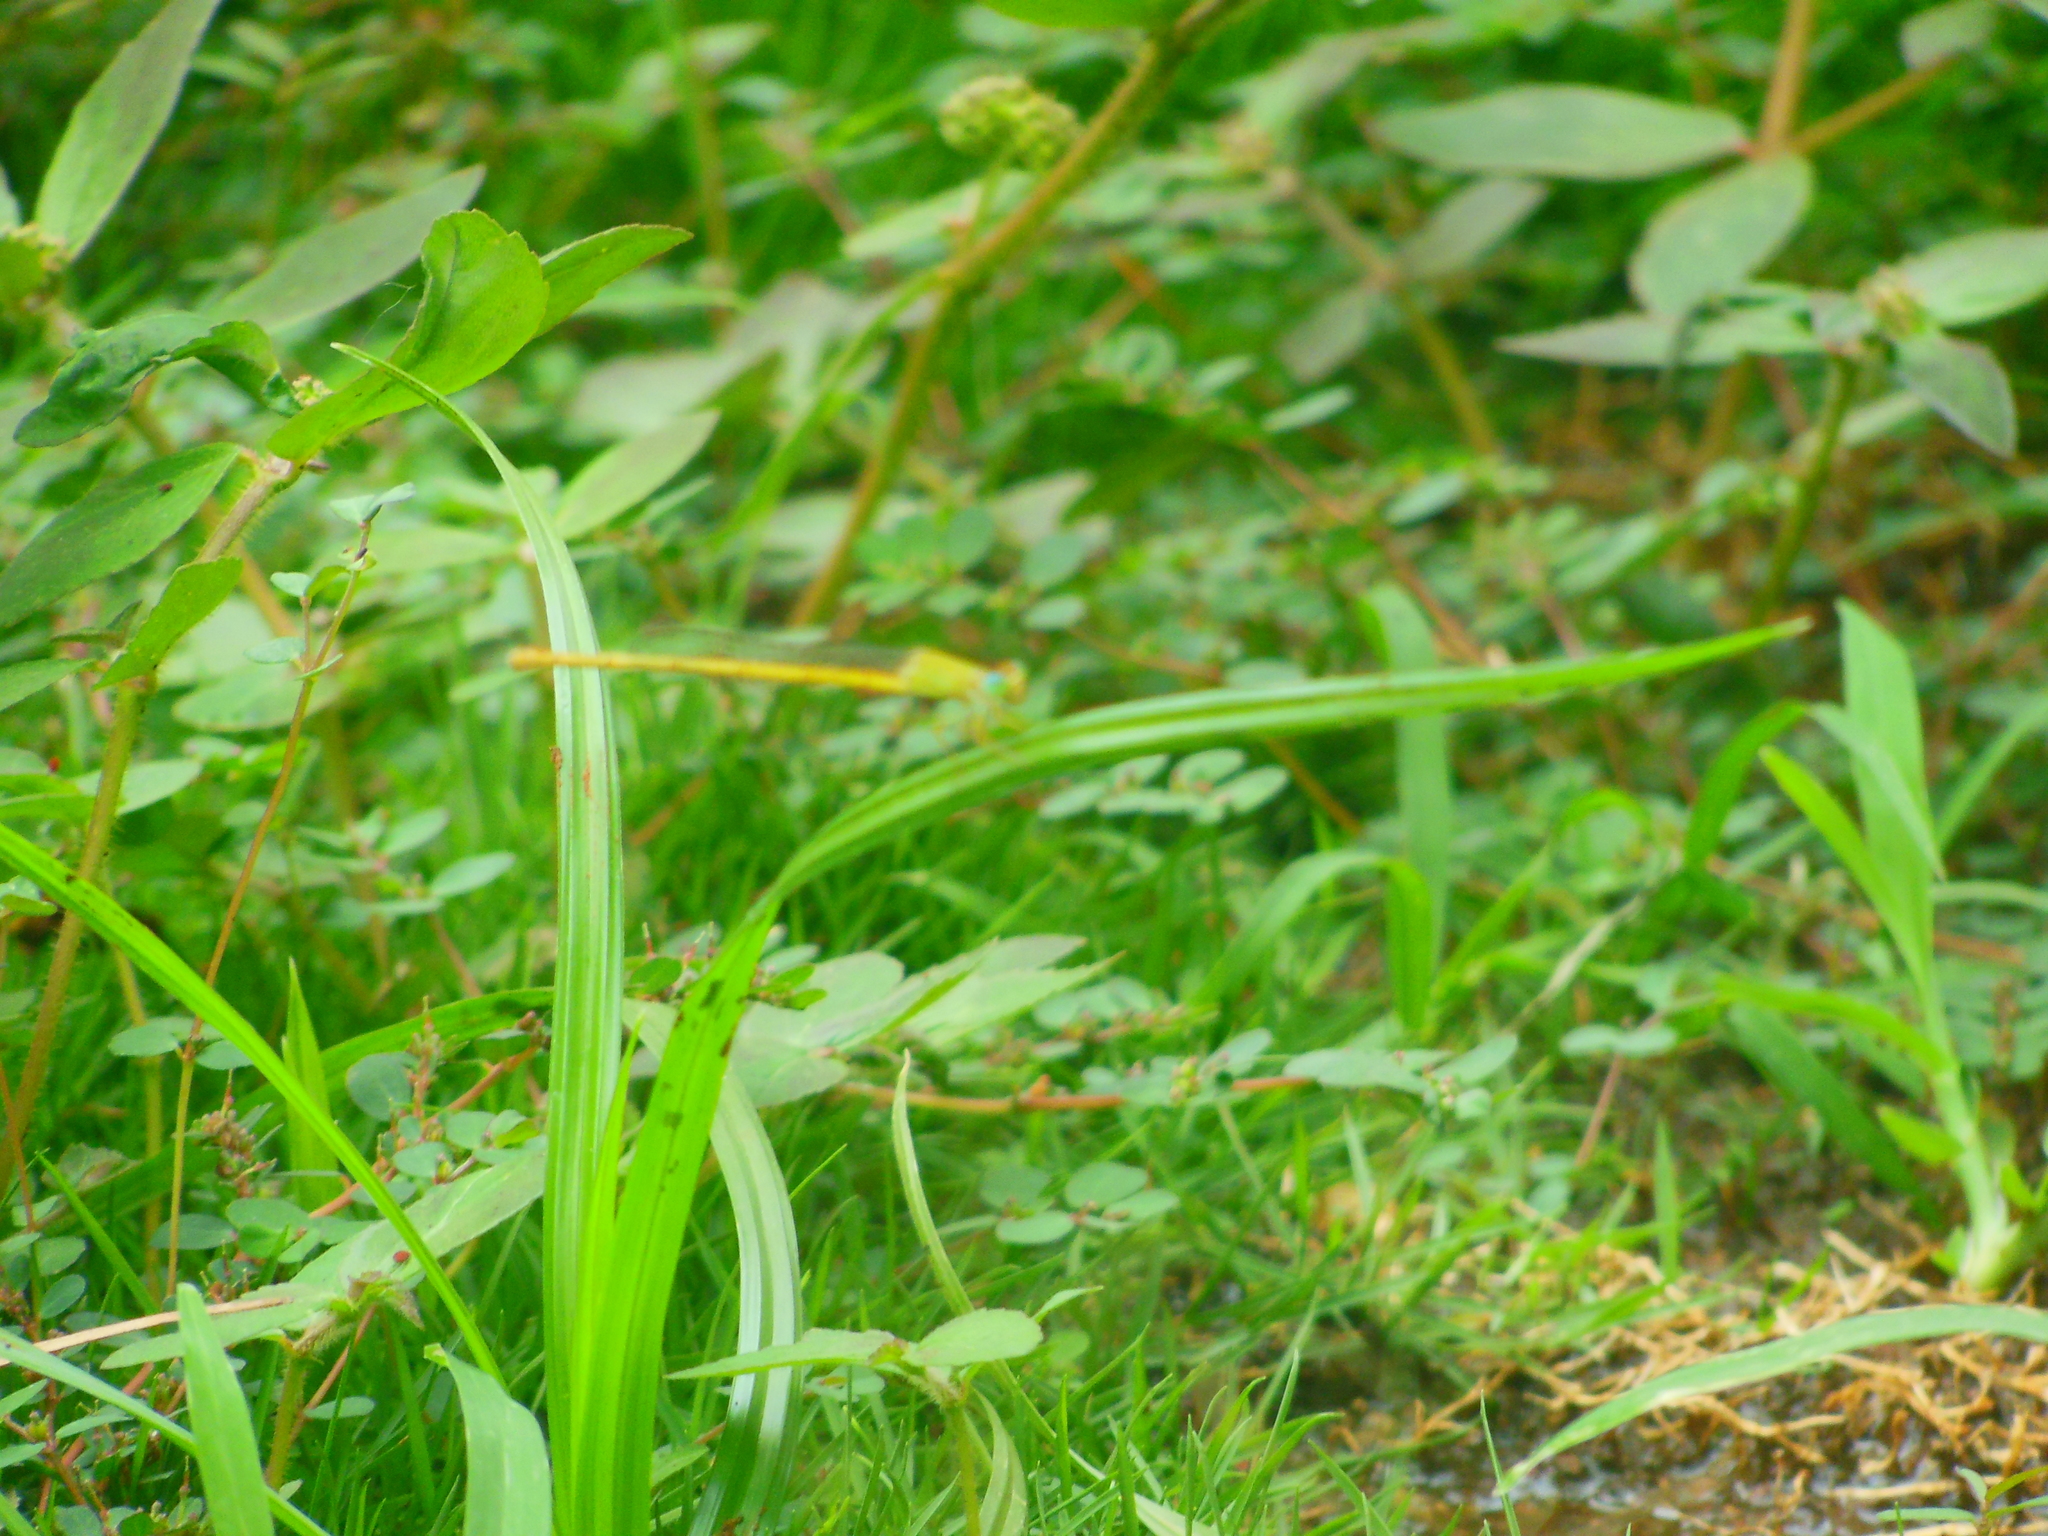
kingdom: Animalia
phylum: Arthropoda
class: Insecta
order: Odonata
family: Coenagrionidae
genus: Ceriagrion
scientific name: Ceriagrion coromandelianum
